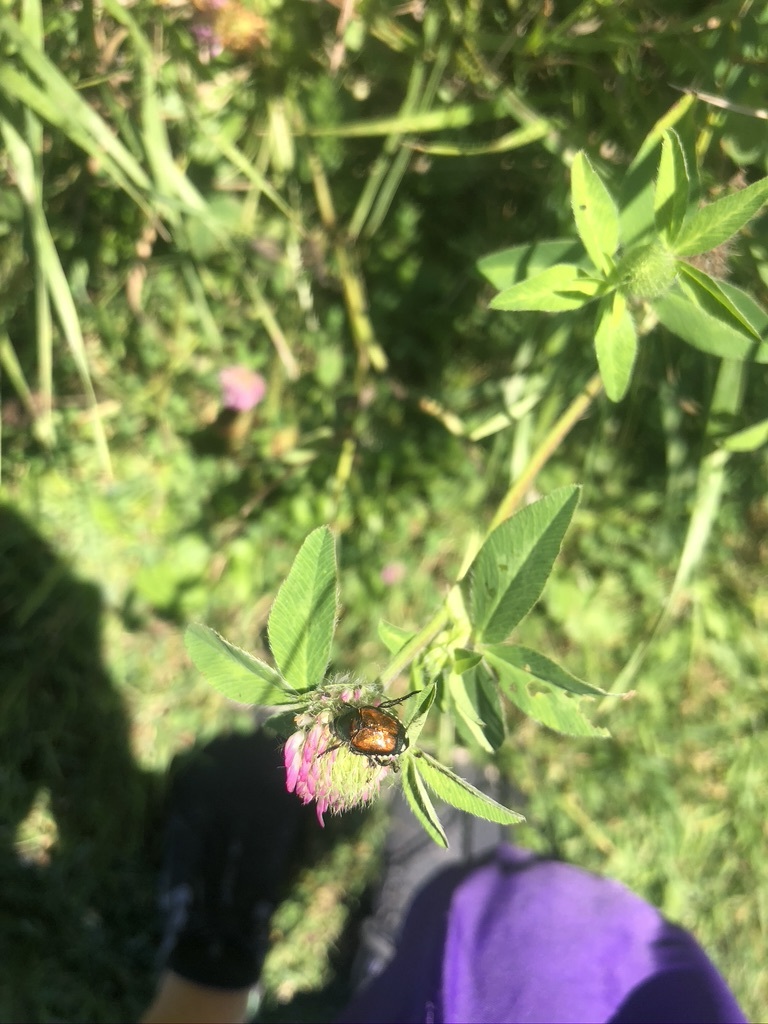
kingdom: Animalia
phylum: Arthropoda
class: Insecta
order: Coleoptera
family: Scarabaeidae
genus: Popillia
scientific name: Popillia japonica
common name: Japanese beetle
